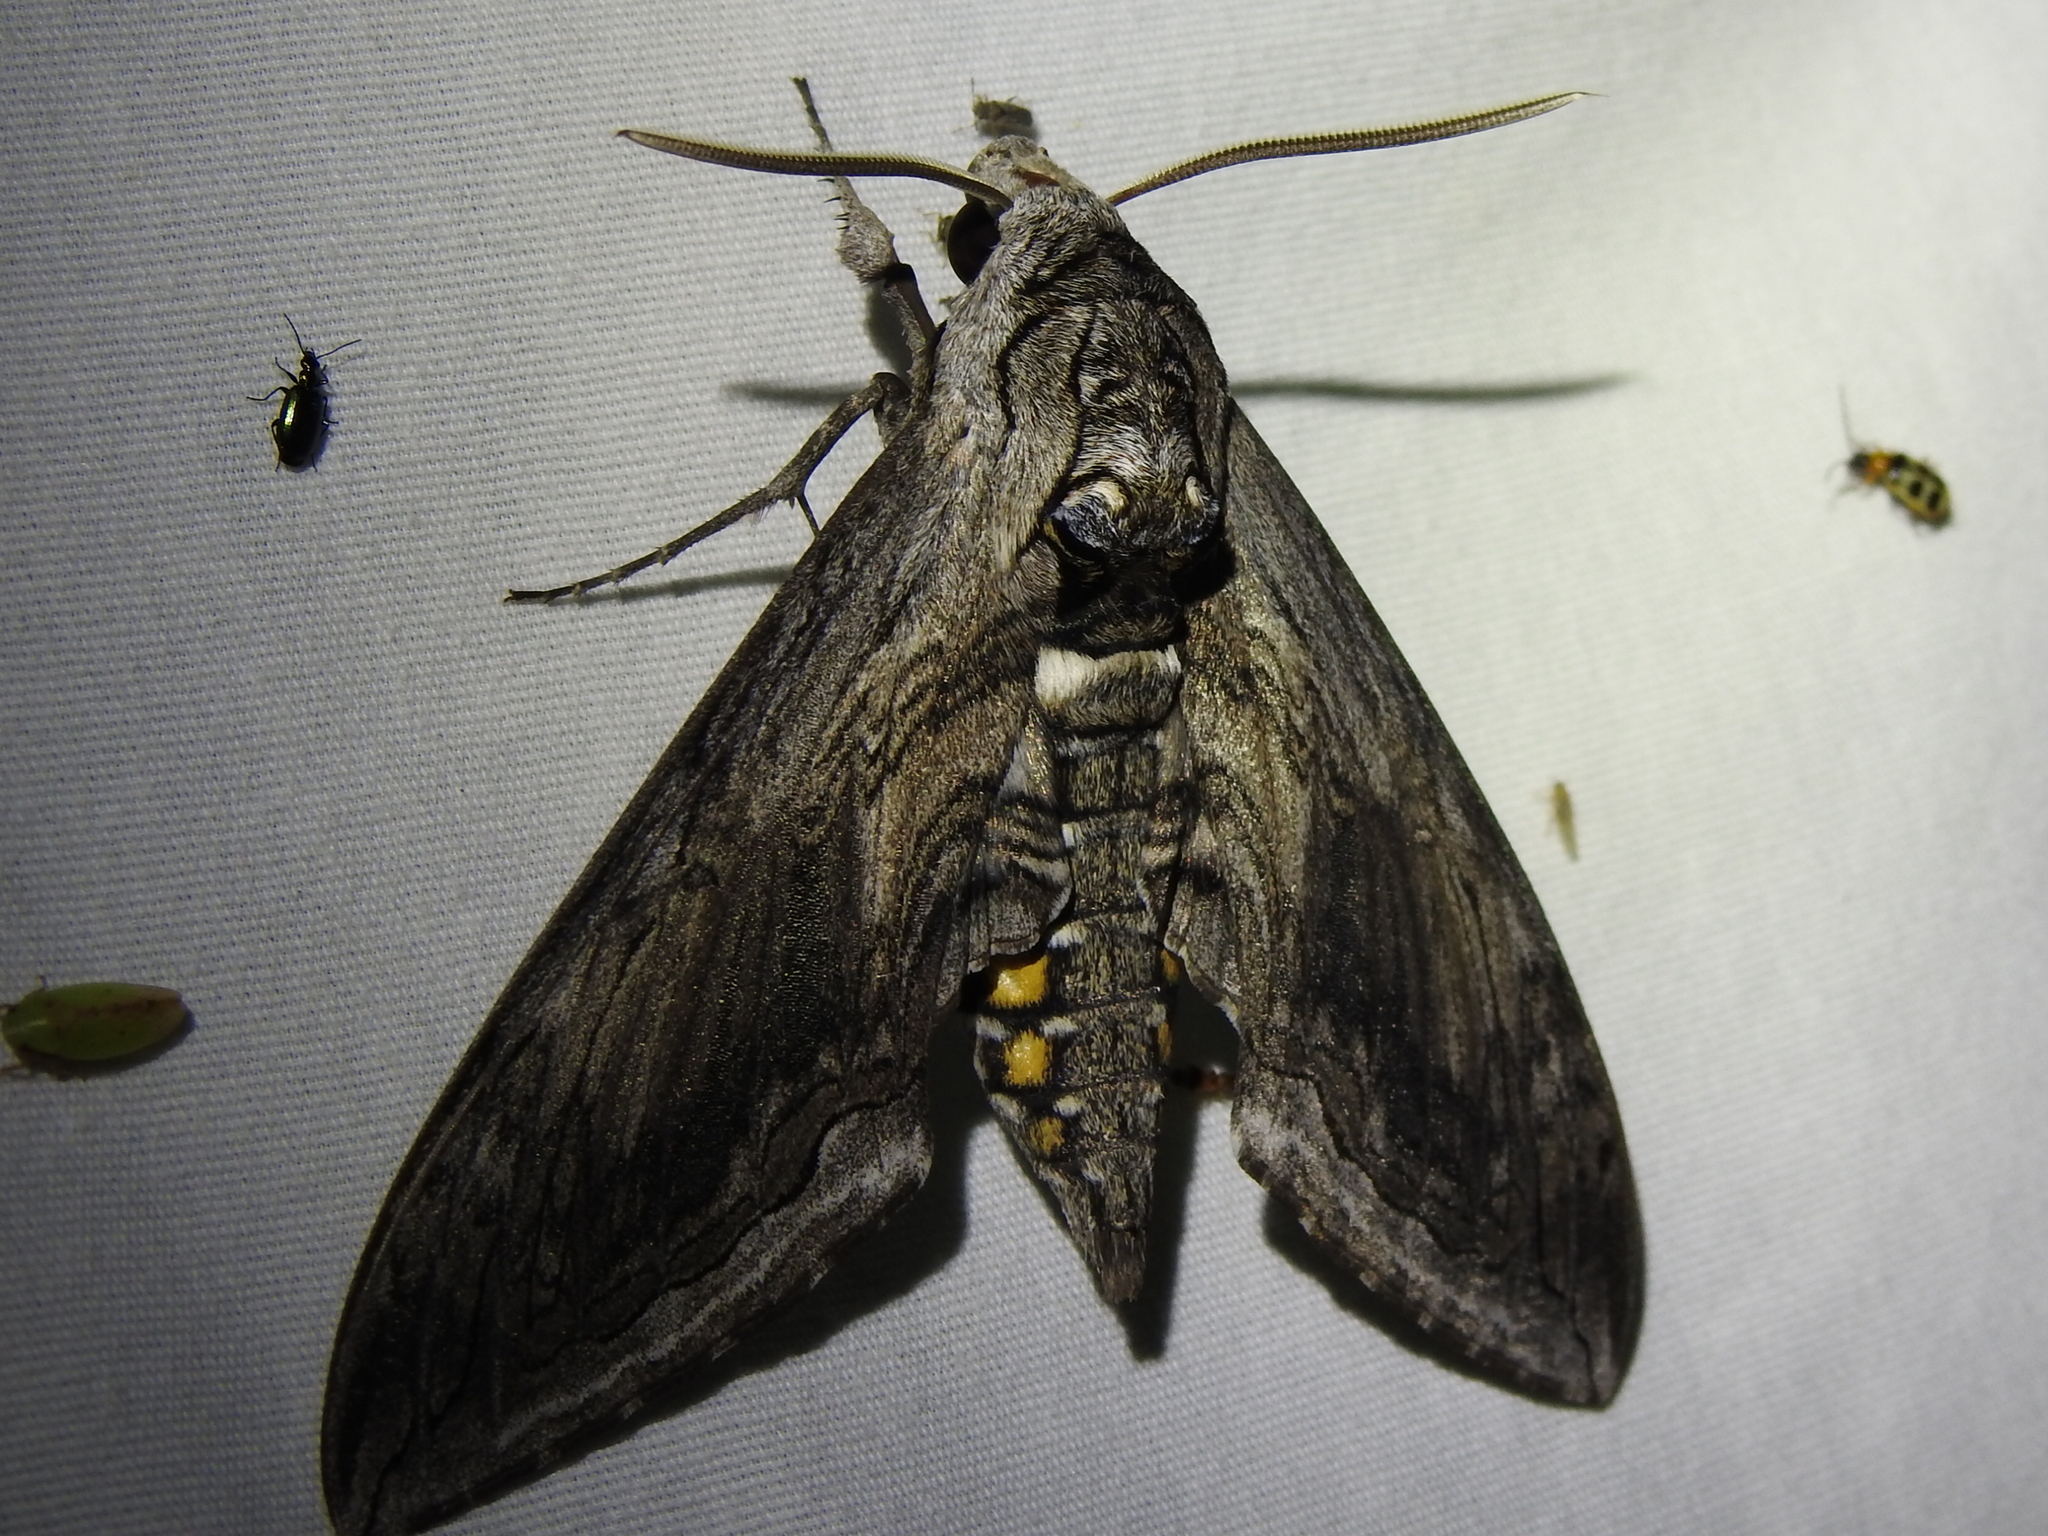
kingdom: Animalia
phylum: Arthropoda
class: Insecta
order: Lepidoptera
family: Sphingidae
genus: Manduca
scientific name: Manduca quinquemaculatus
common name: Five-spotted hawk-moth
